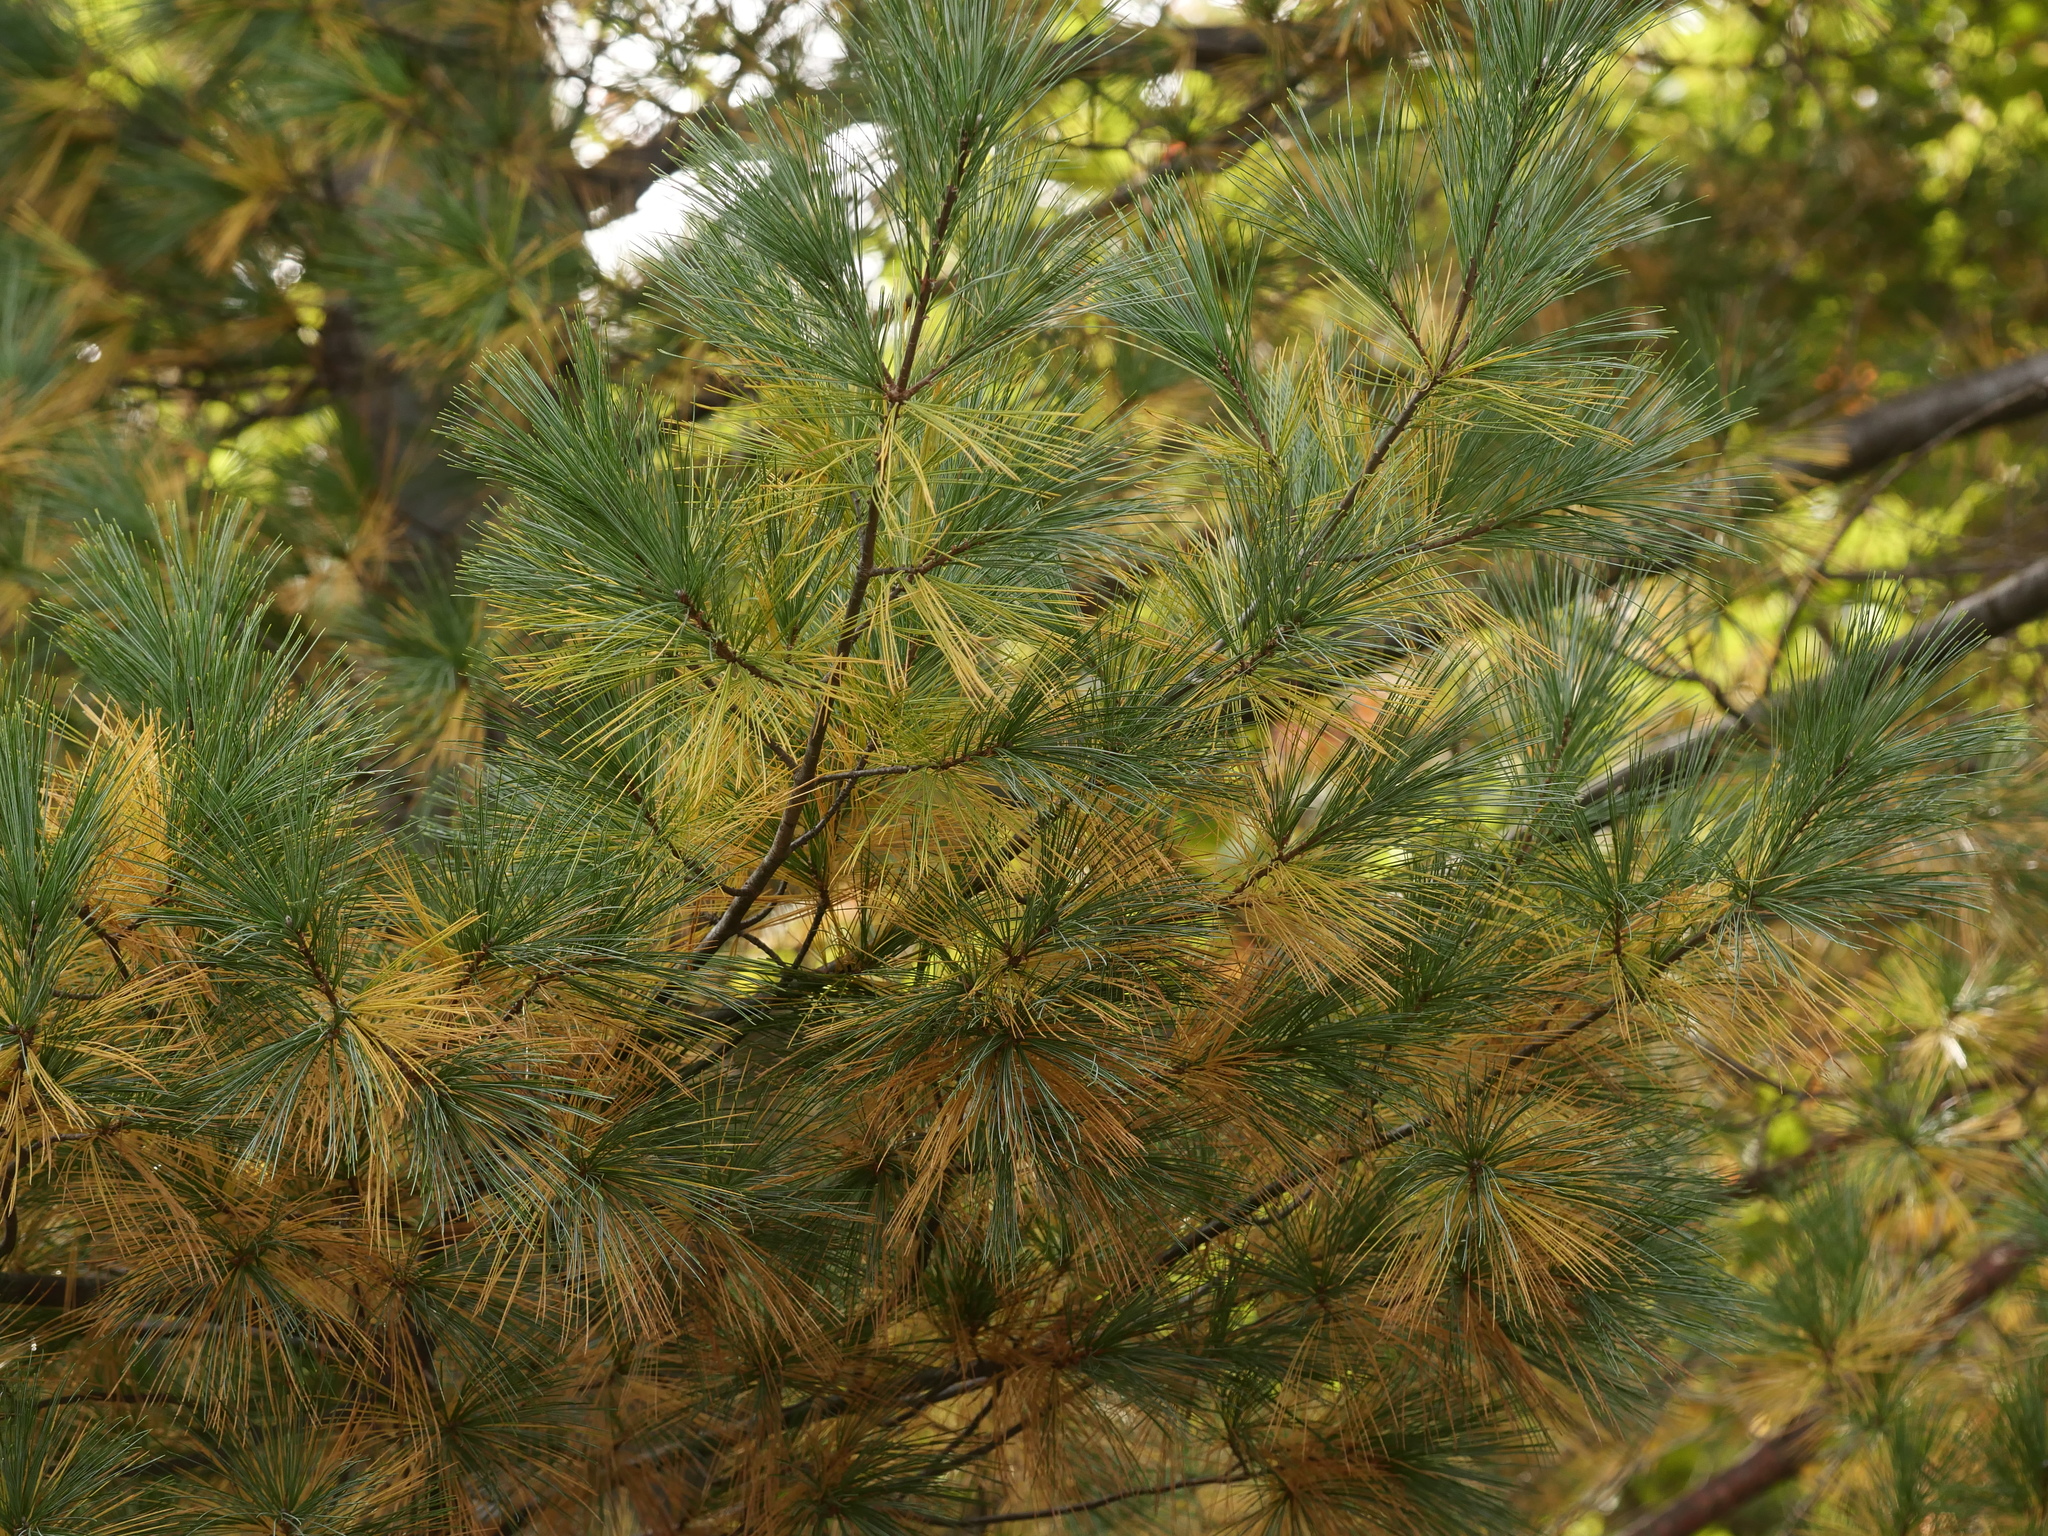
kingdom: Plantae
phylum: Tracheophyta
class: Pinopsida
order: Pinales
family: Pinaceae
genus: Pinus
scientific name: Pinus strobus
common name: Weymouth pine
